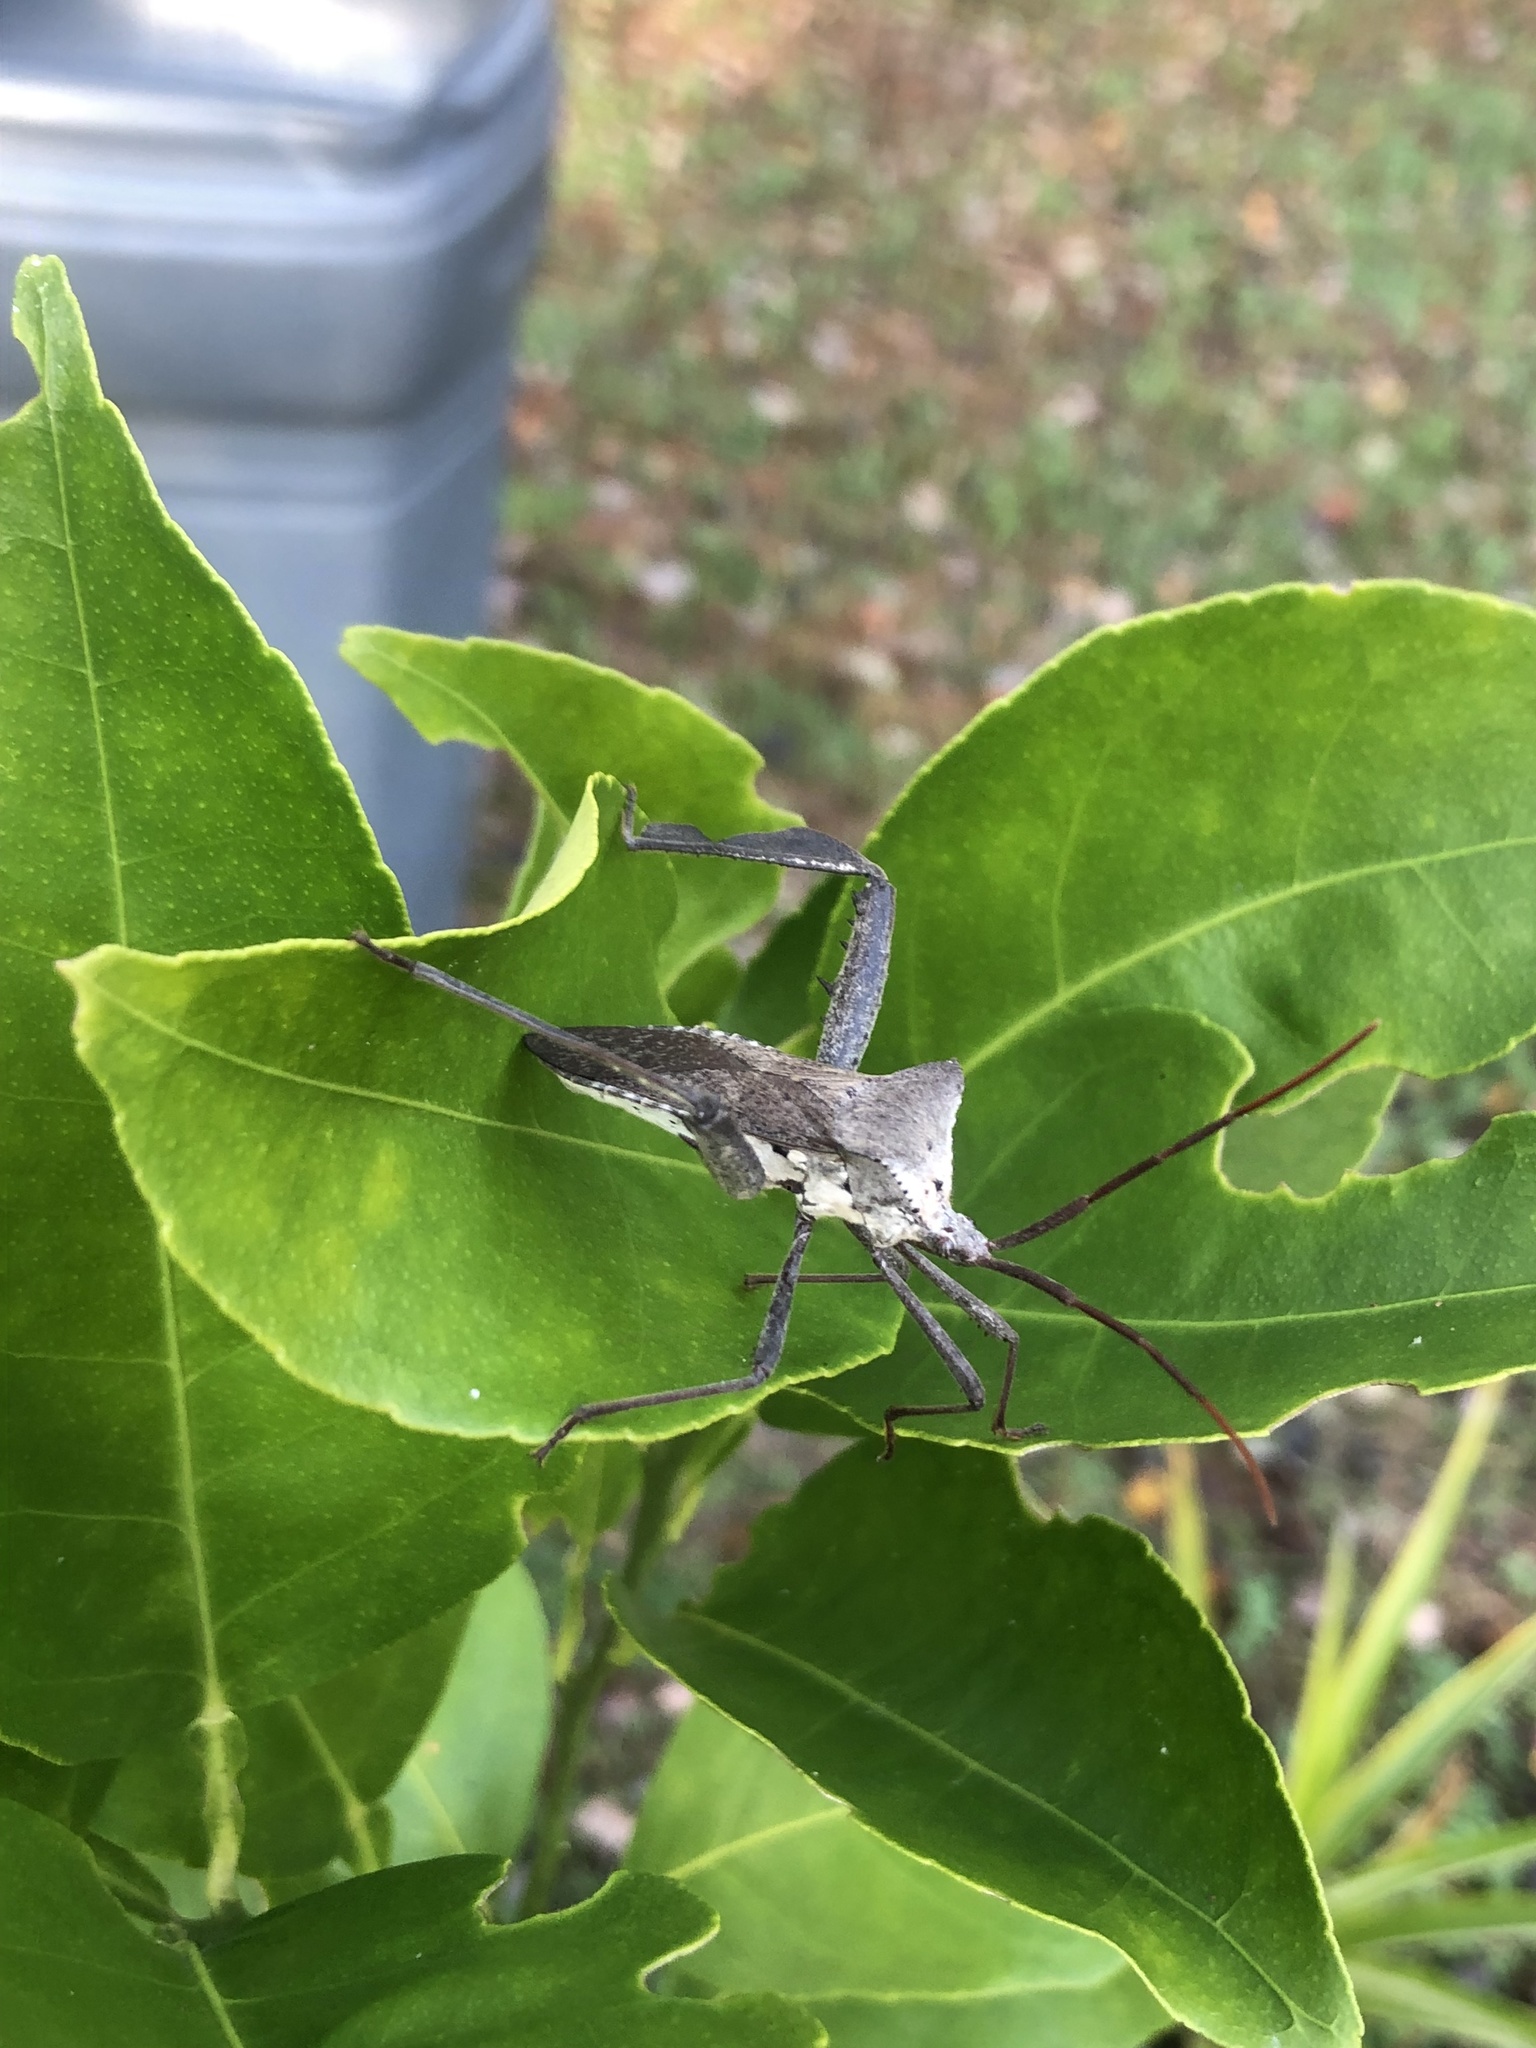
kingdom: Animalia
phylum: Arthropoda
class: Insecta
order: Hemiptera
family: Coreidae
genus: Acanthocephala
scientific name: Acanthocephala declivis
